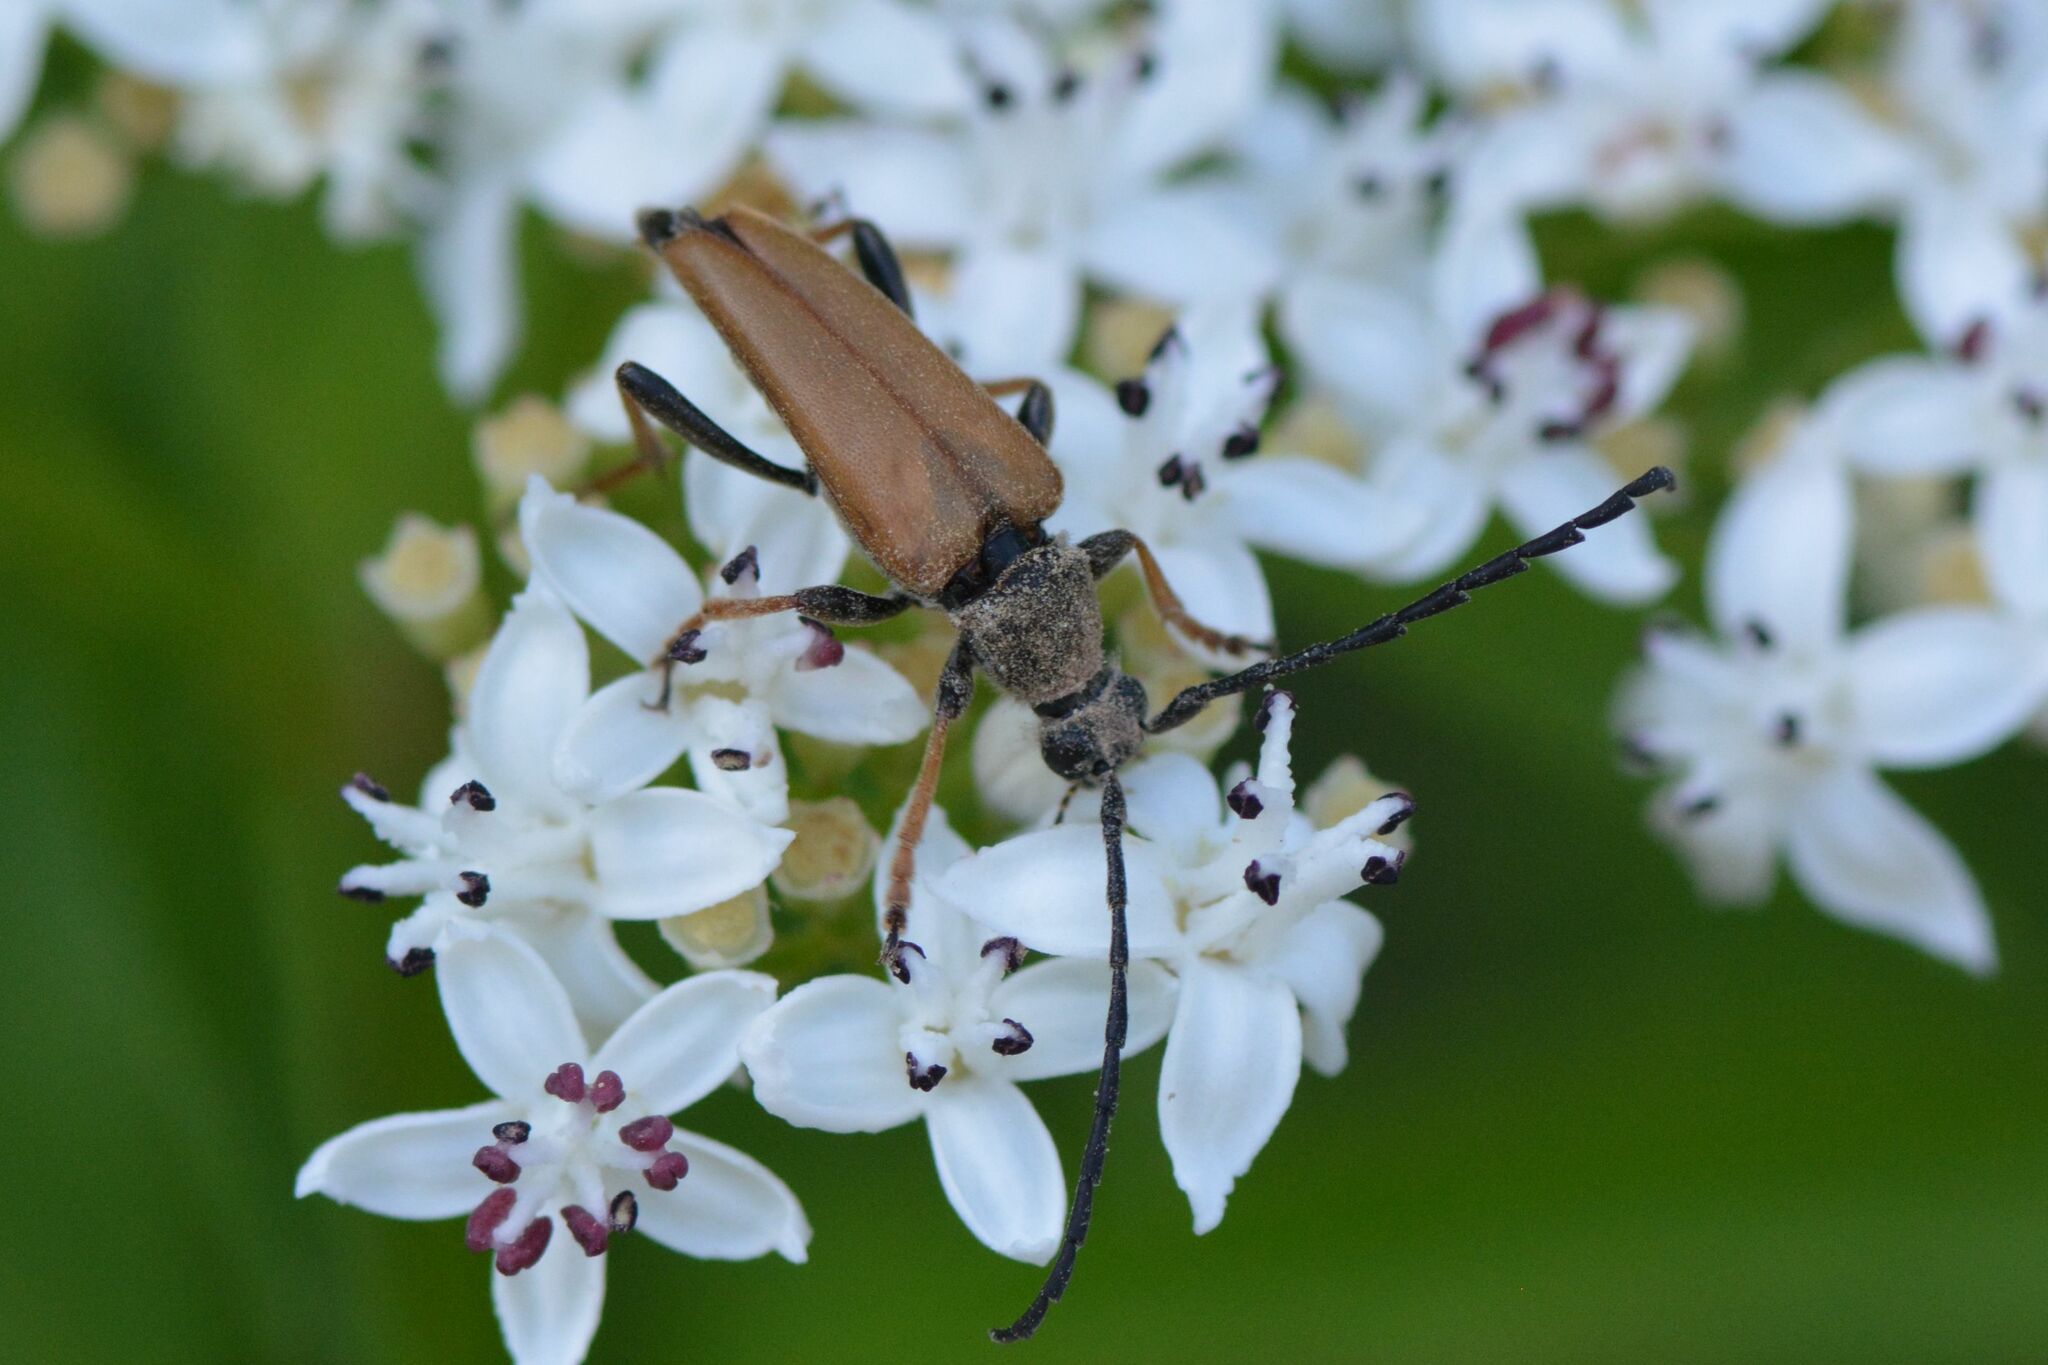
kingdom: Animalia
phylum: Arthropoda
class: Insecta
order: Coleoptera
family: Cerambycidae
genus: Stictoleptura
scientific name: Stictoleptura rubra
